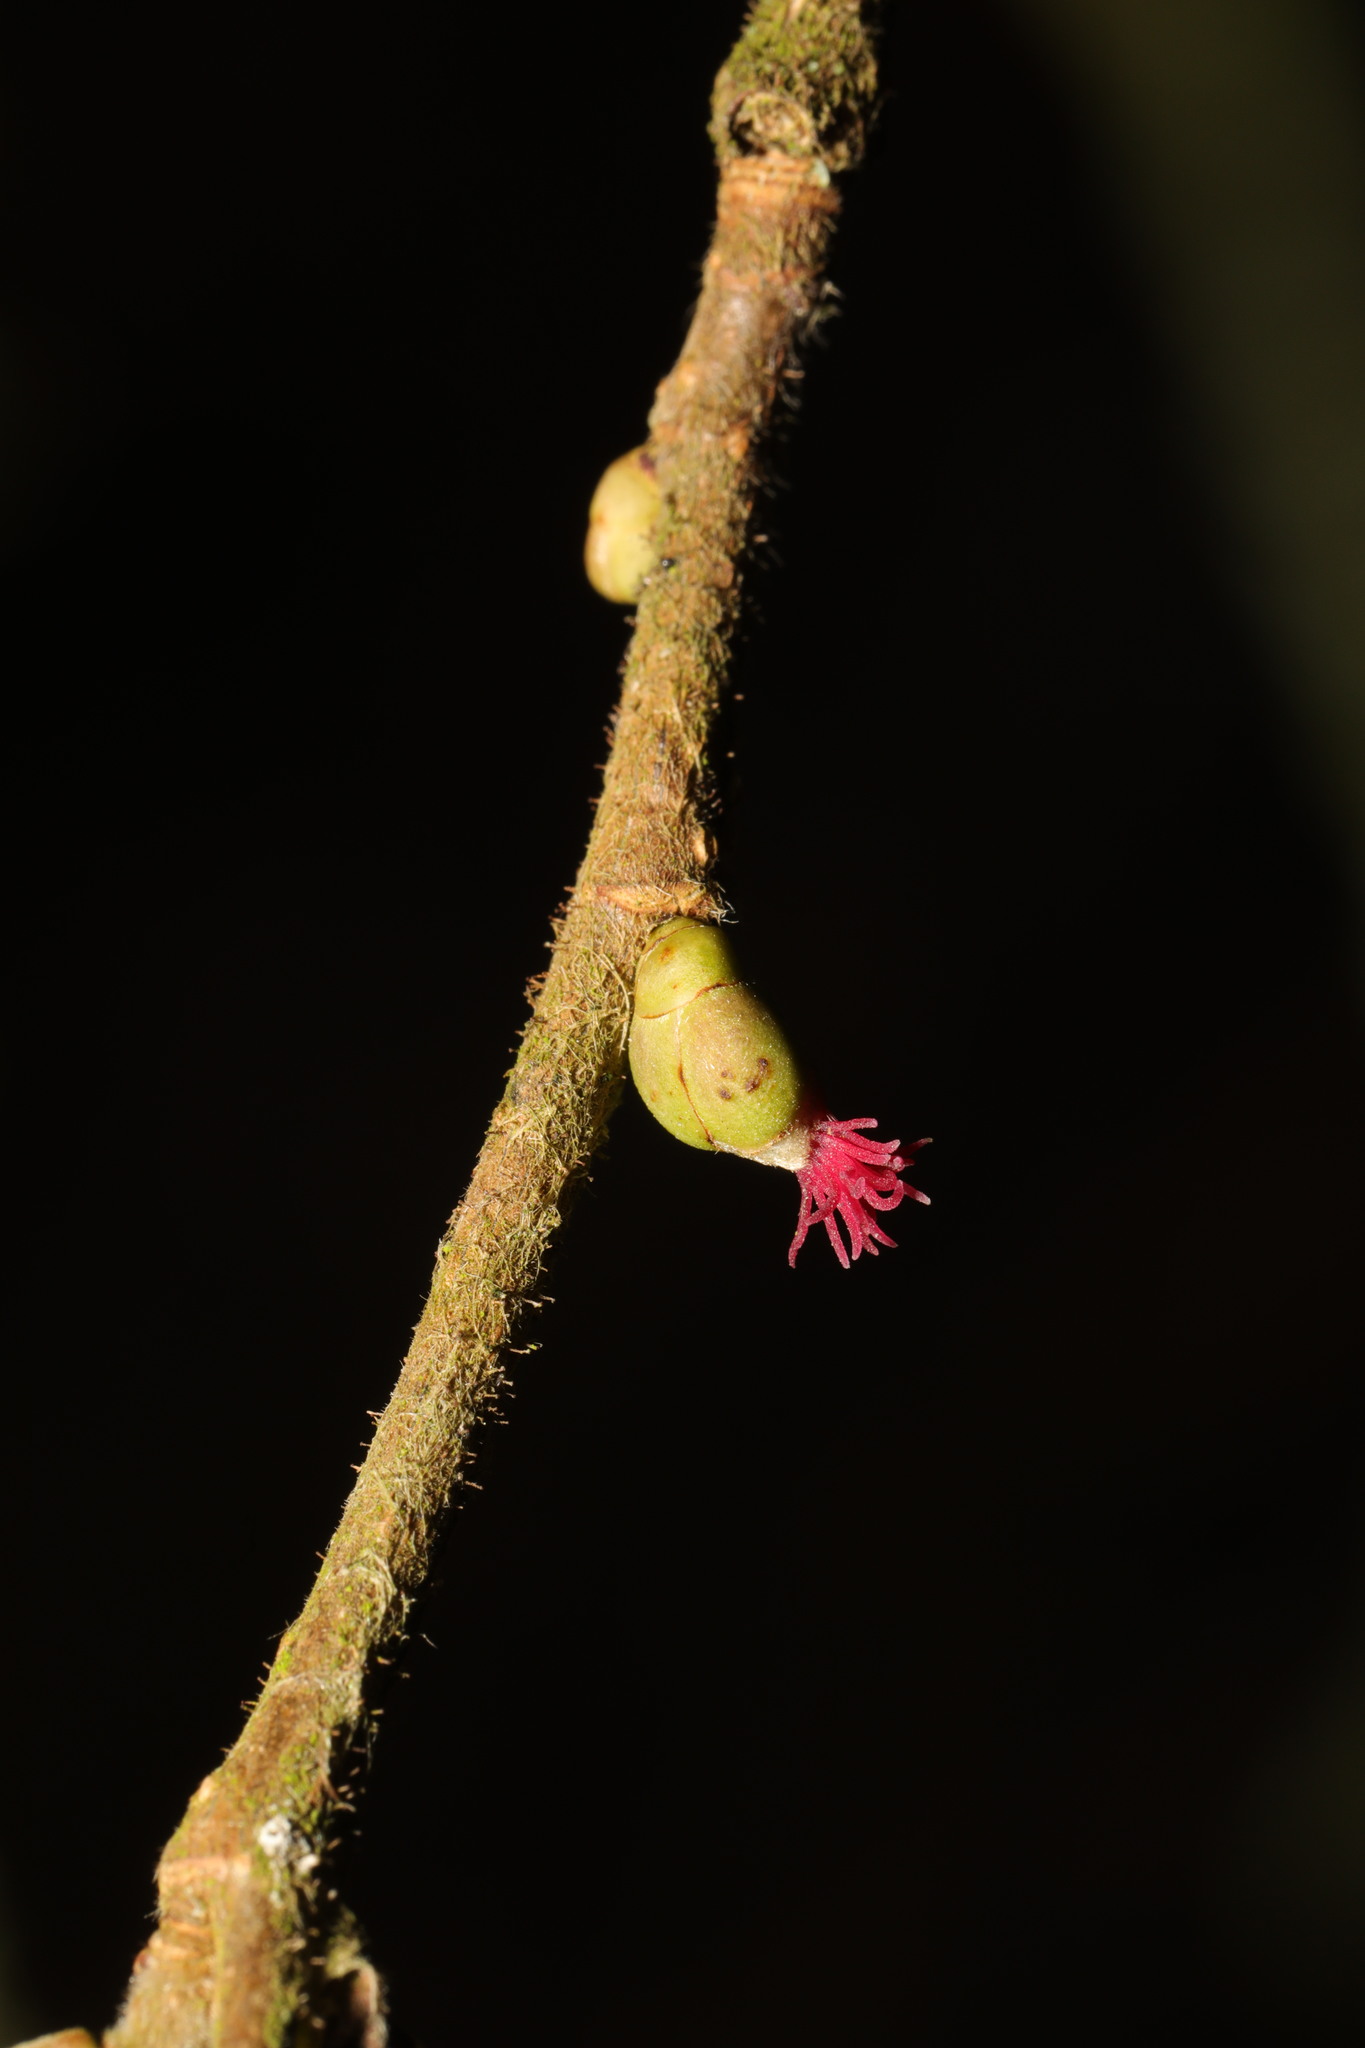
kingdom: Plantae
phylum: Tracheophyta
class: Magnoliopsida
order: Fagales
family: Betulaceae
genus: Corylus
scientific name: Corylus avellana
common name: European hazel
